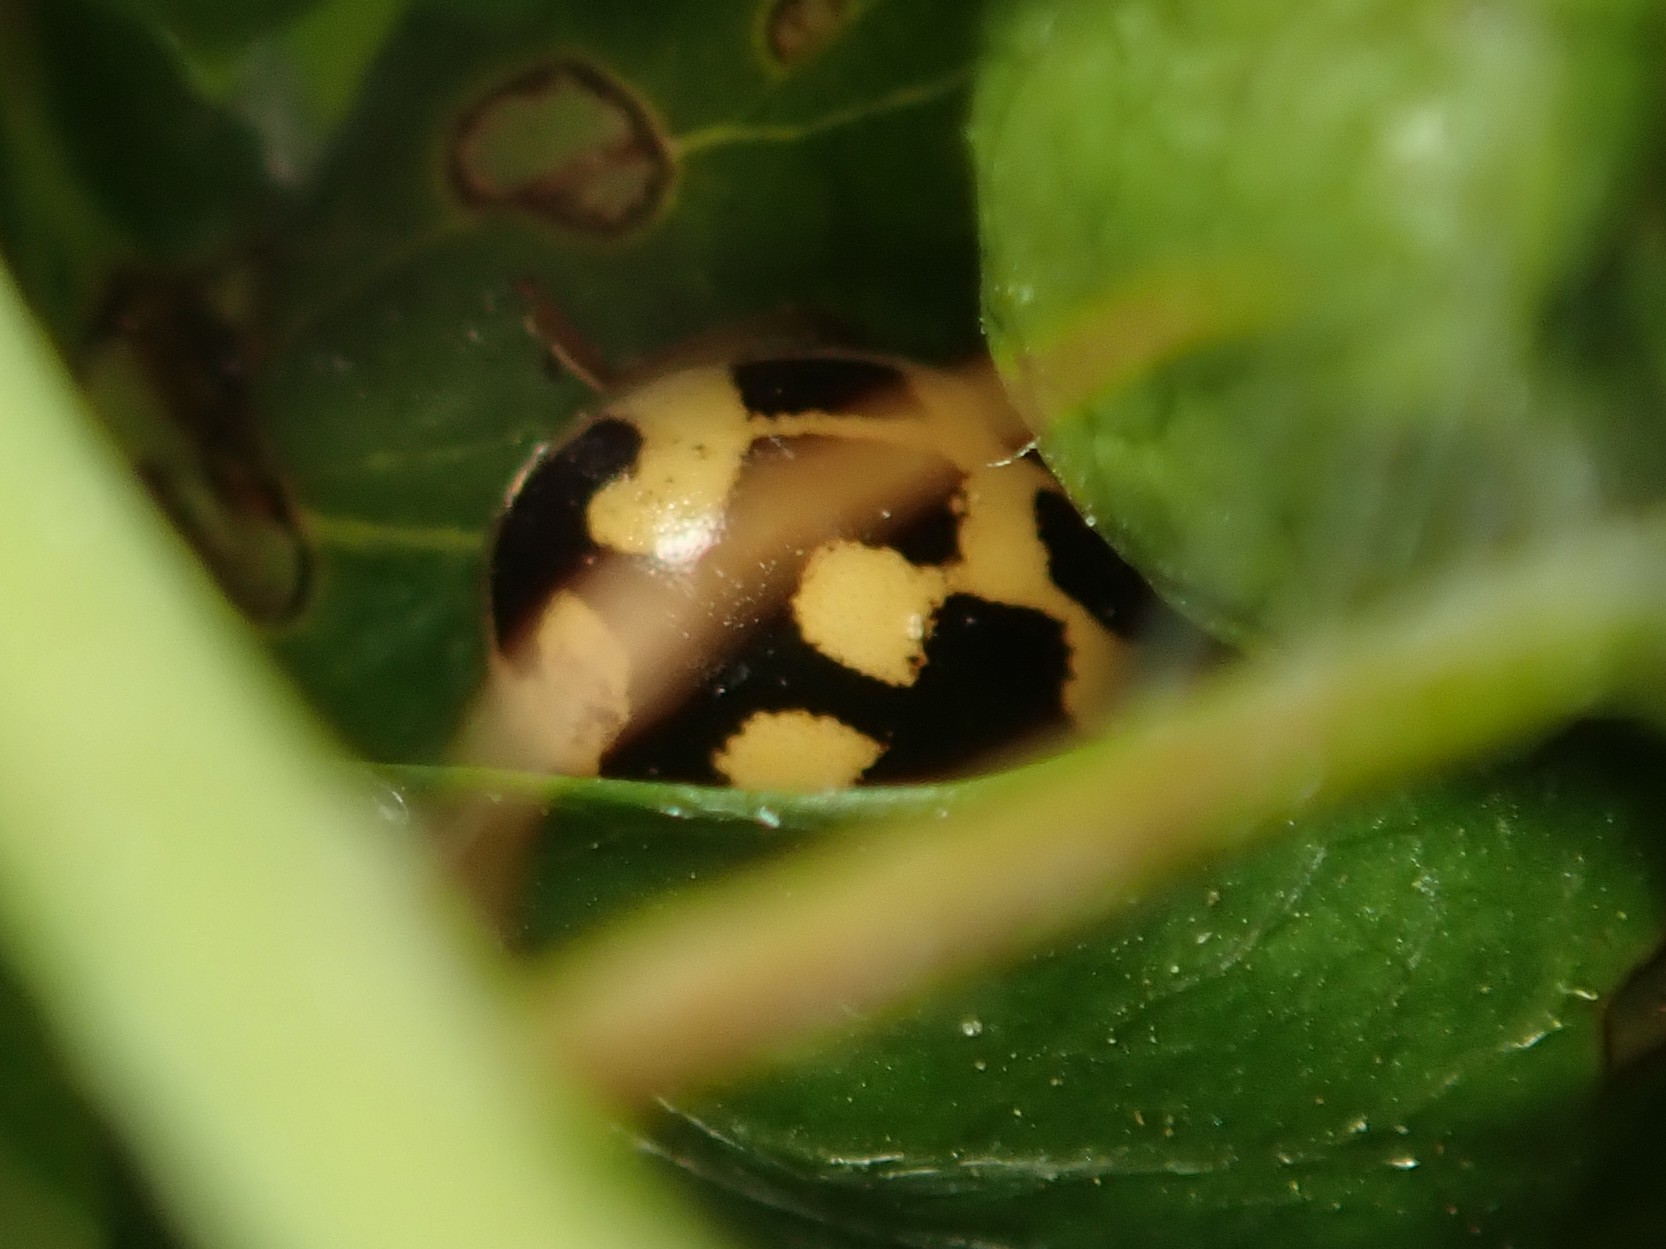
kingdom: Animalia
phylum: Arthropoda
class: Insecta
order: Coleoptera
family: Coccinellidae
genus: Propylaea
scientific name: Propylaea quatuordecimpunctata
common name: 14-spotted ladybird beetle
